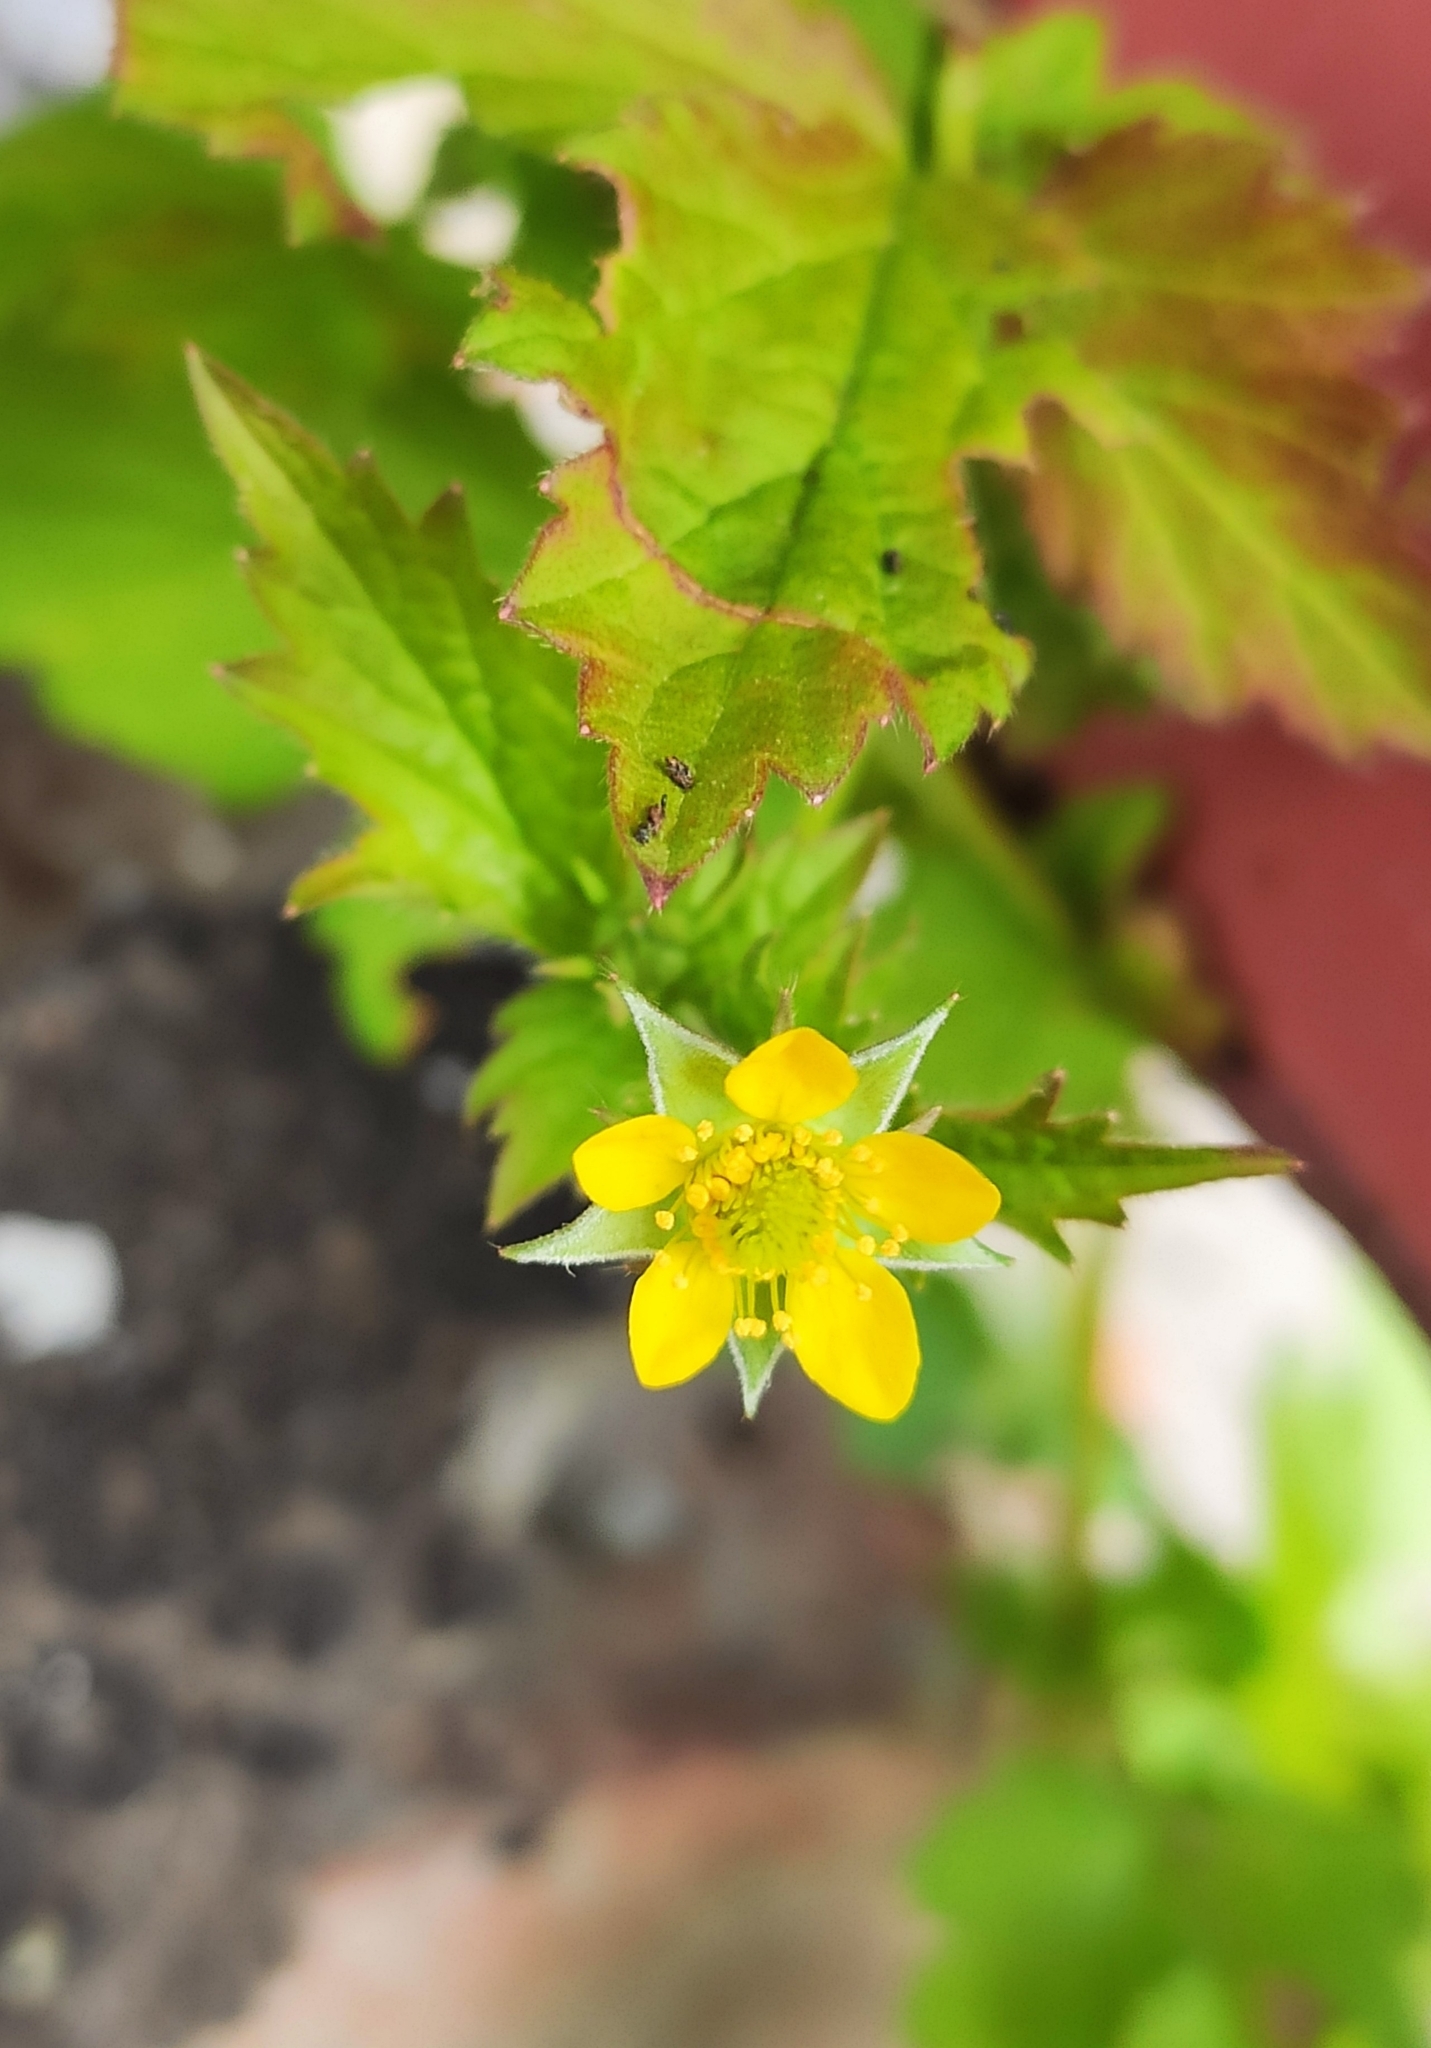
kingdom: Plantae
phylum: Tracheophyta
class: Magnoliopsida
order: Rosales
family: Rosaceae
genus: Geum
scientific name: Geum urbanum
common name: Wood avens
